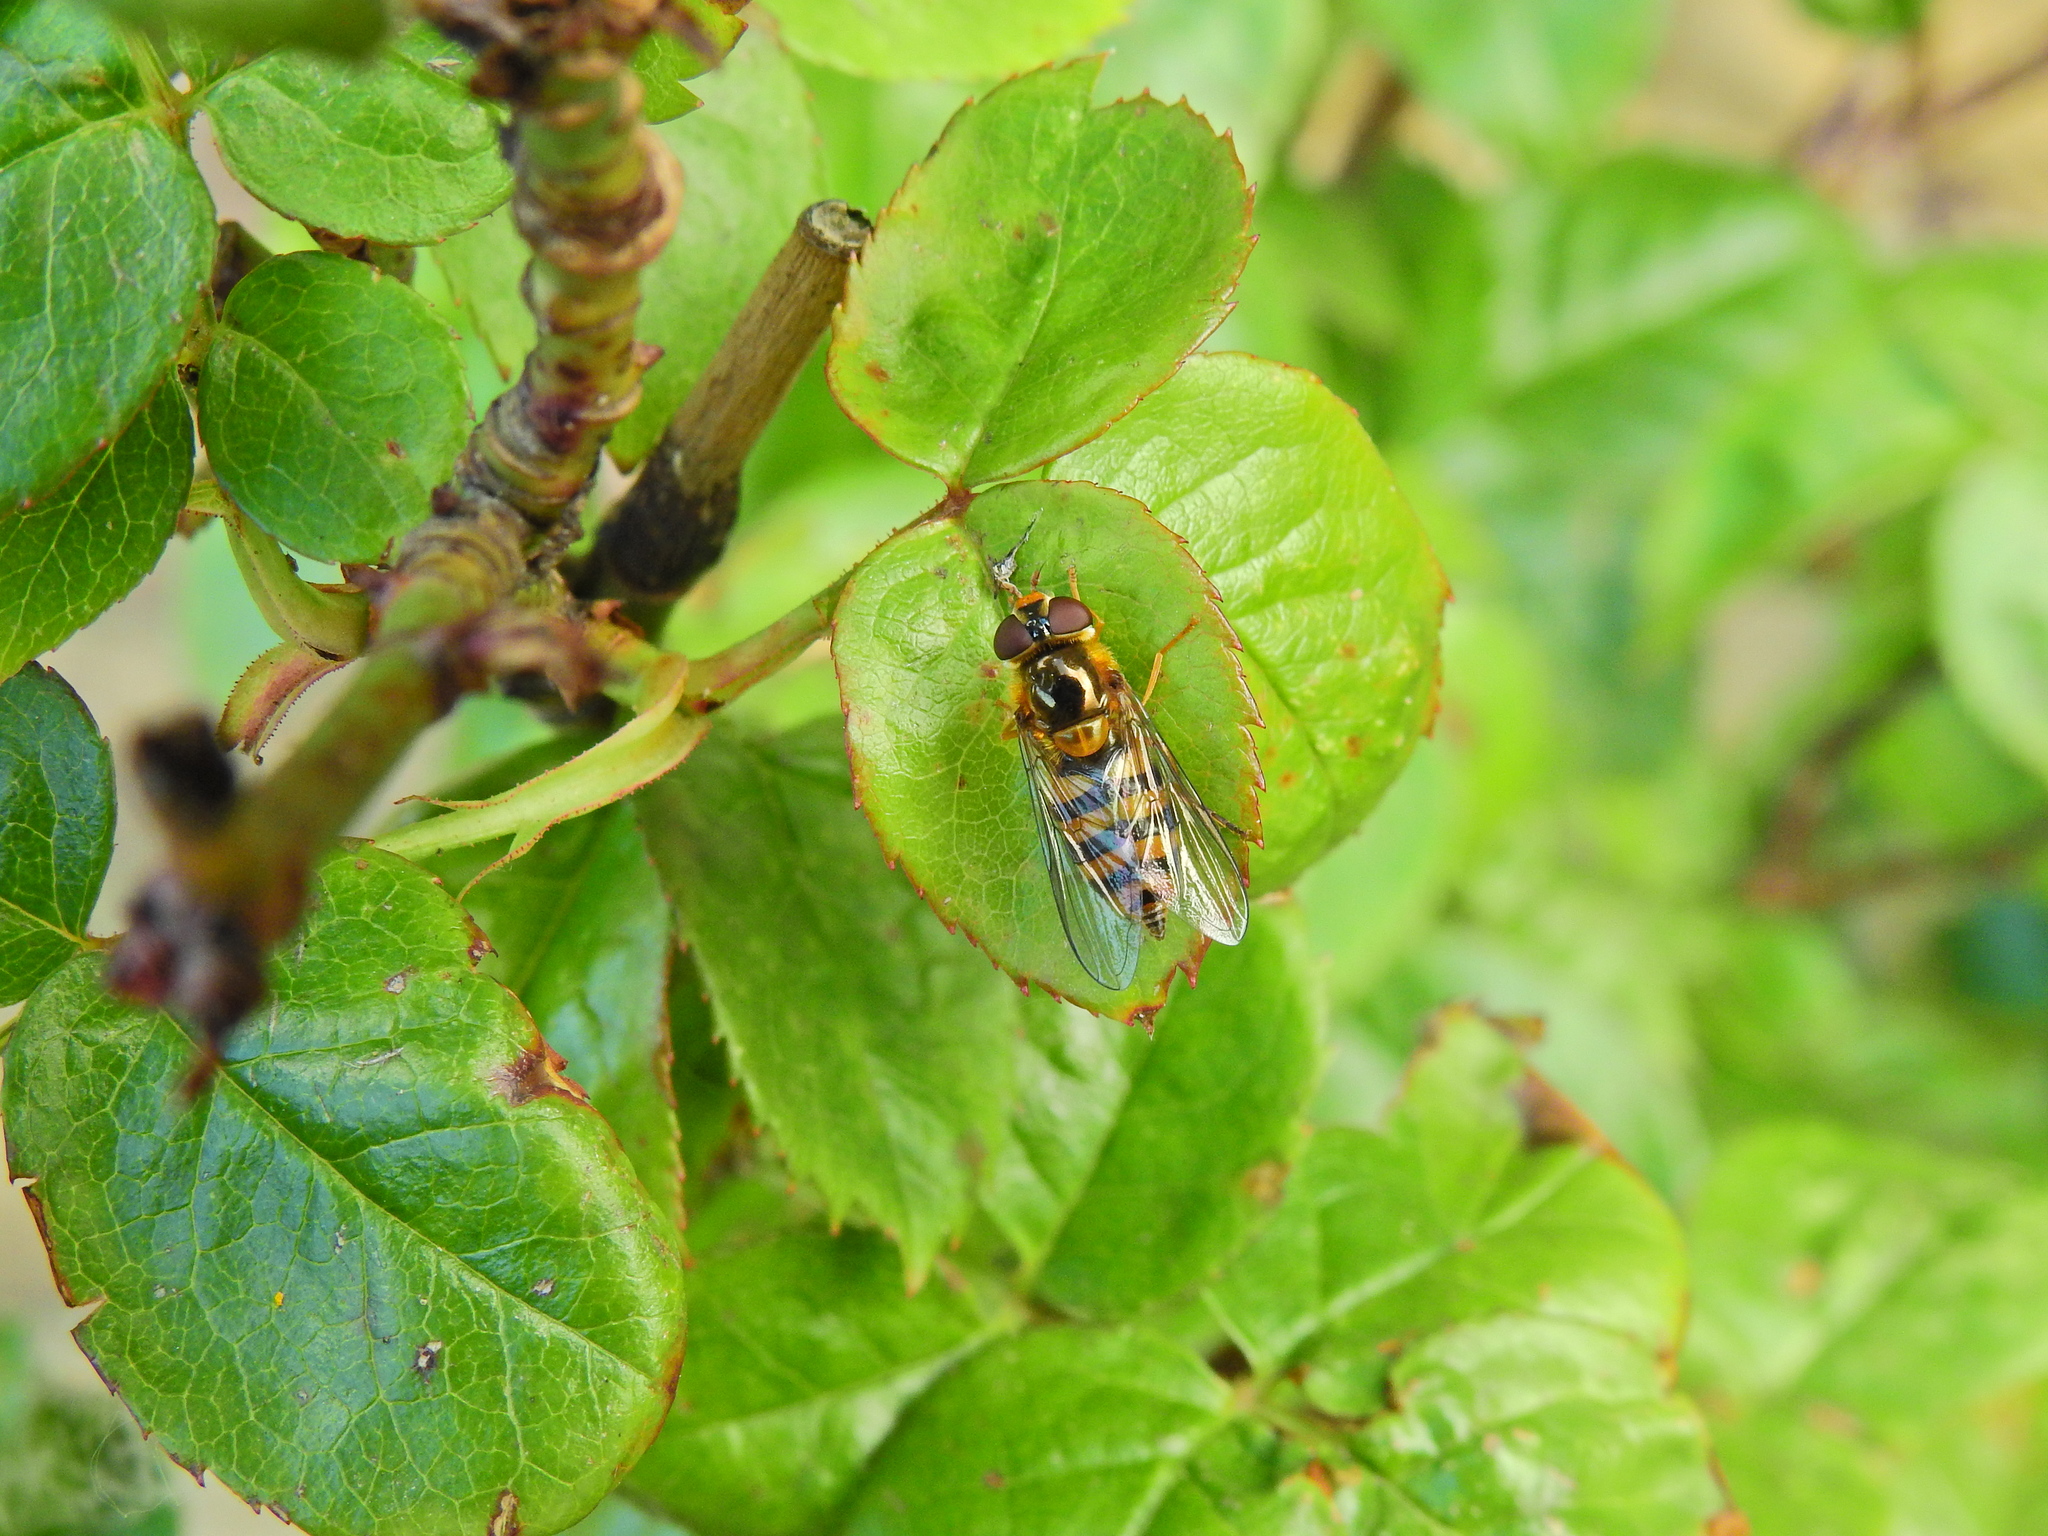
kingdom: Animalia
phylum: Arthropoda
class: Insecta
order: Diptera
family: Syrphidae
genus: Epistrophe
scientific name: Epistrophe nitidicollis
